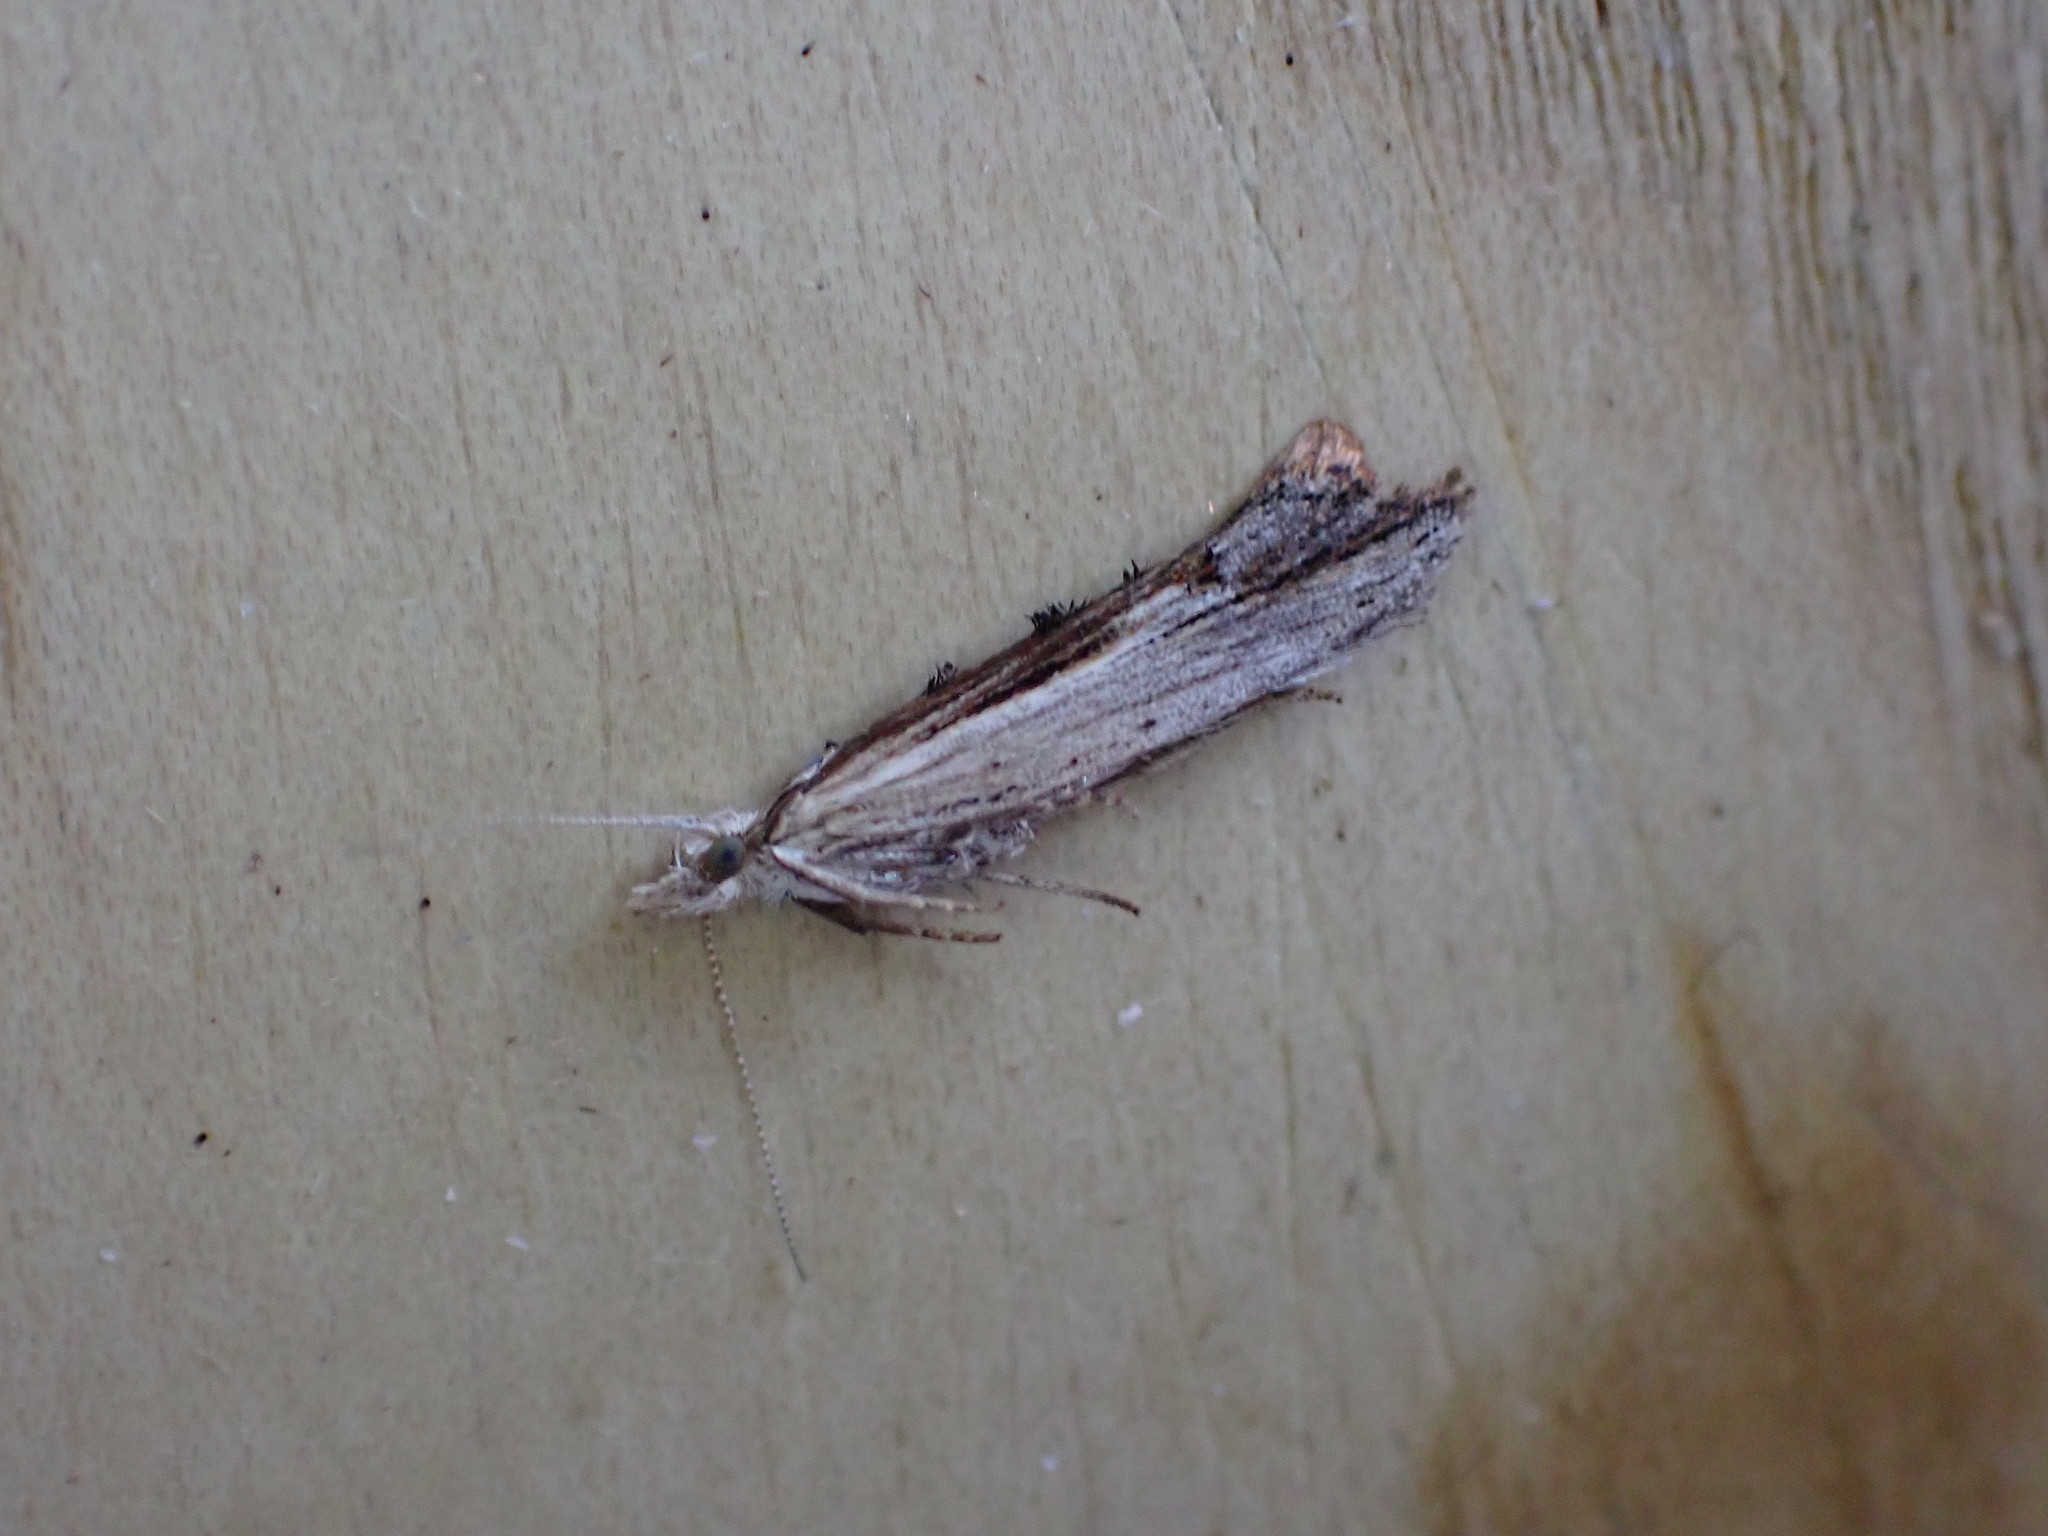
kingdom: Animalia
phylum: Arthropoda
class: Insecta
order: Lepidoptera
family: Ypsolophidae
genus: Ypsolopha
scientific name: Ypsolopha scabrella
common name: Wainscot smudge
